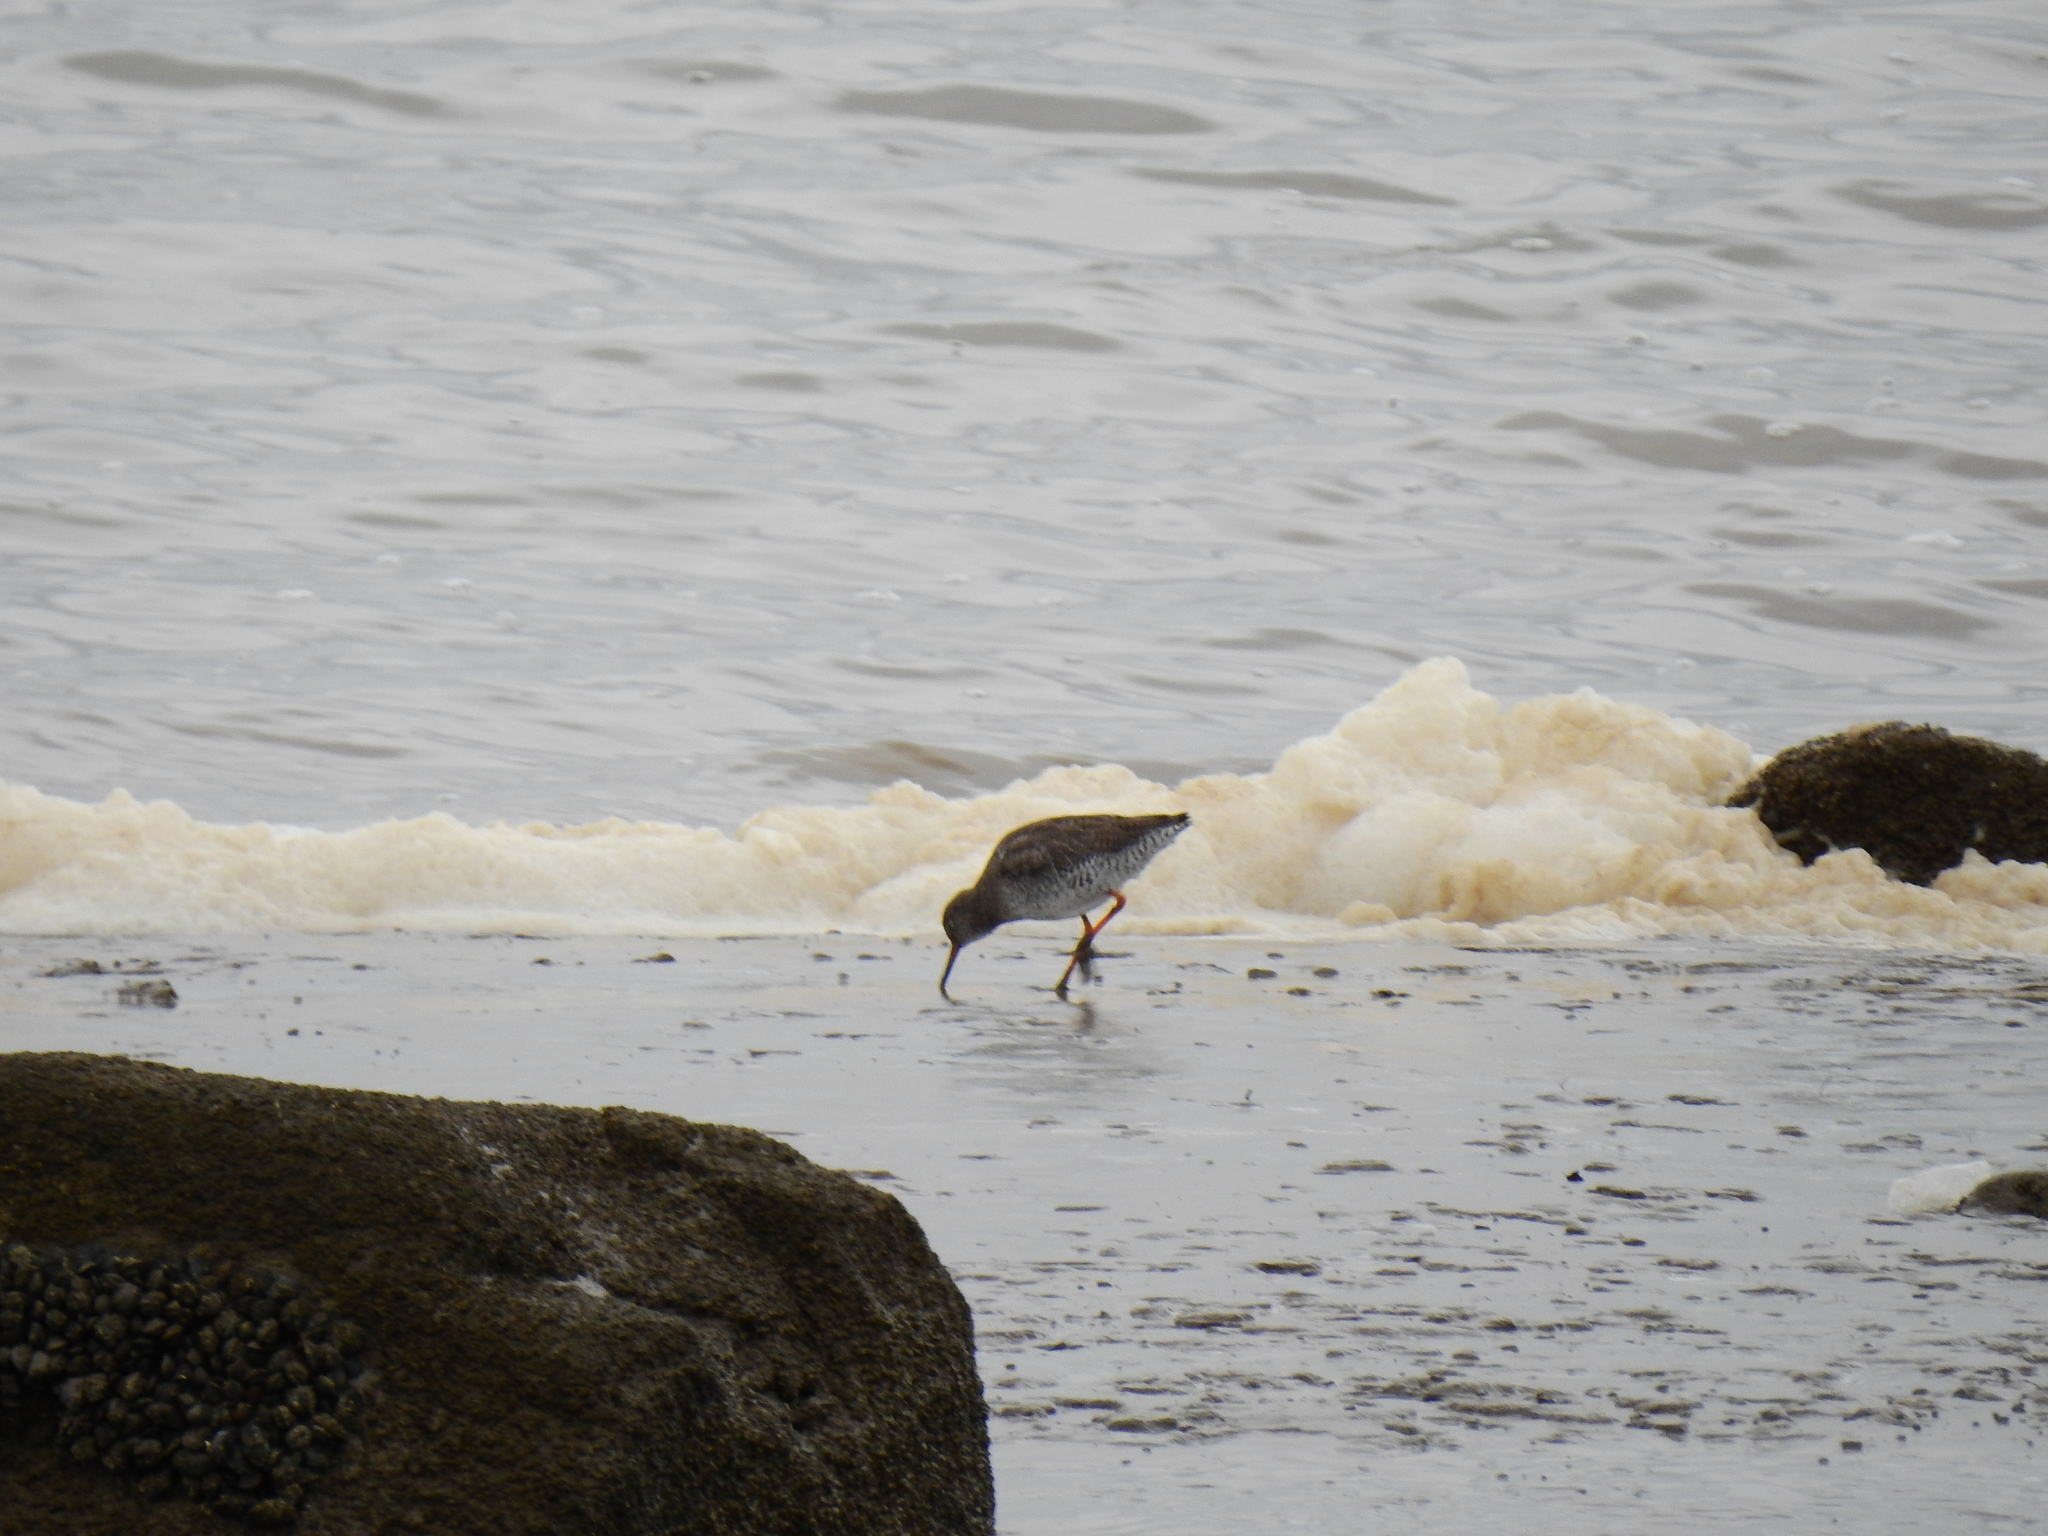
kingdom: Animalia
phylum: Chordata
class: Aves
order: Charadriiformes
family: Scolopacidae
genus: Tringa
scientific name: Tringa totanus
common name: Common redshank
